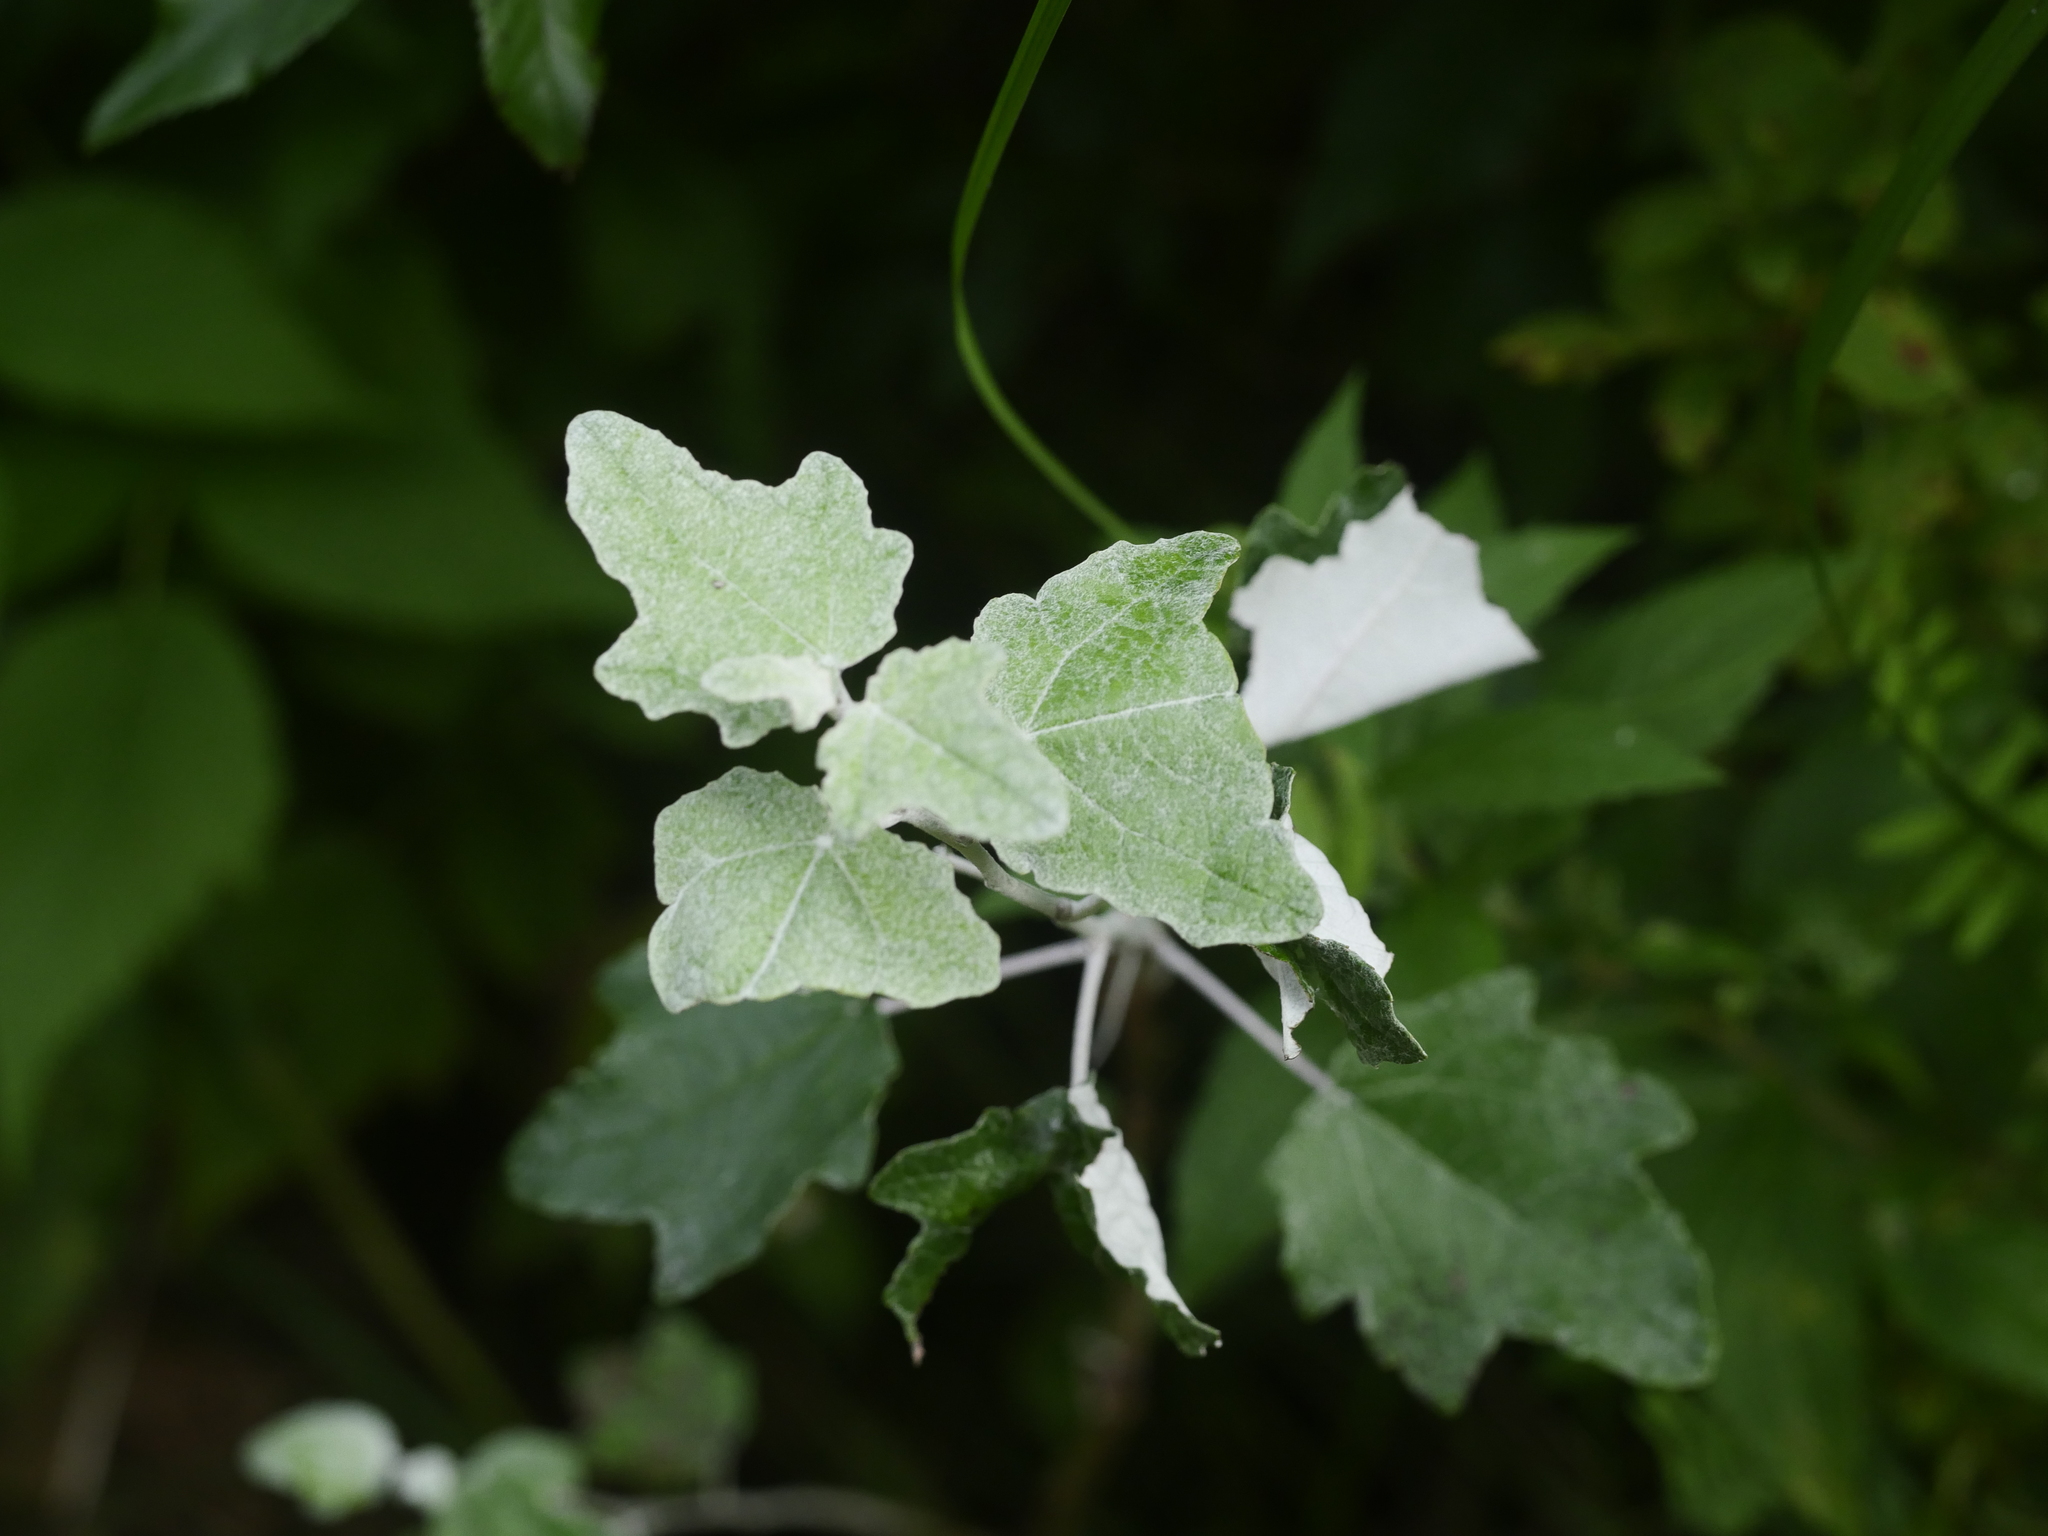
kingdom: Plantae
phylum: Tracheophyta
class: Magnoliopsida
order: Malpighiales
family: Salicaceae
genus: Populus
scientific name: Populus alba
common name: White poplar
